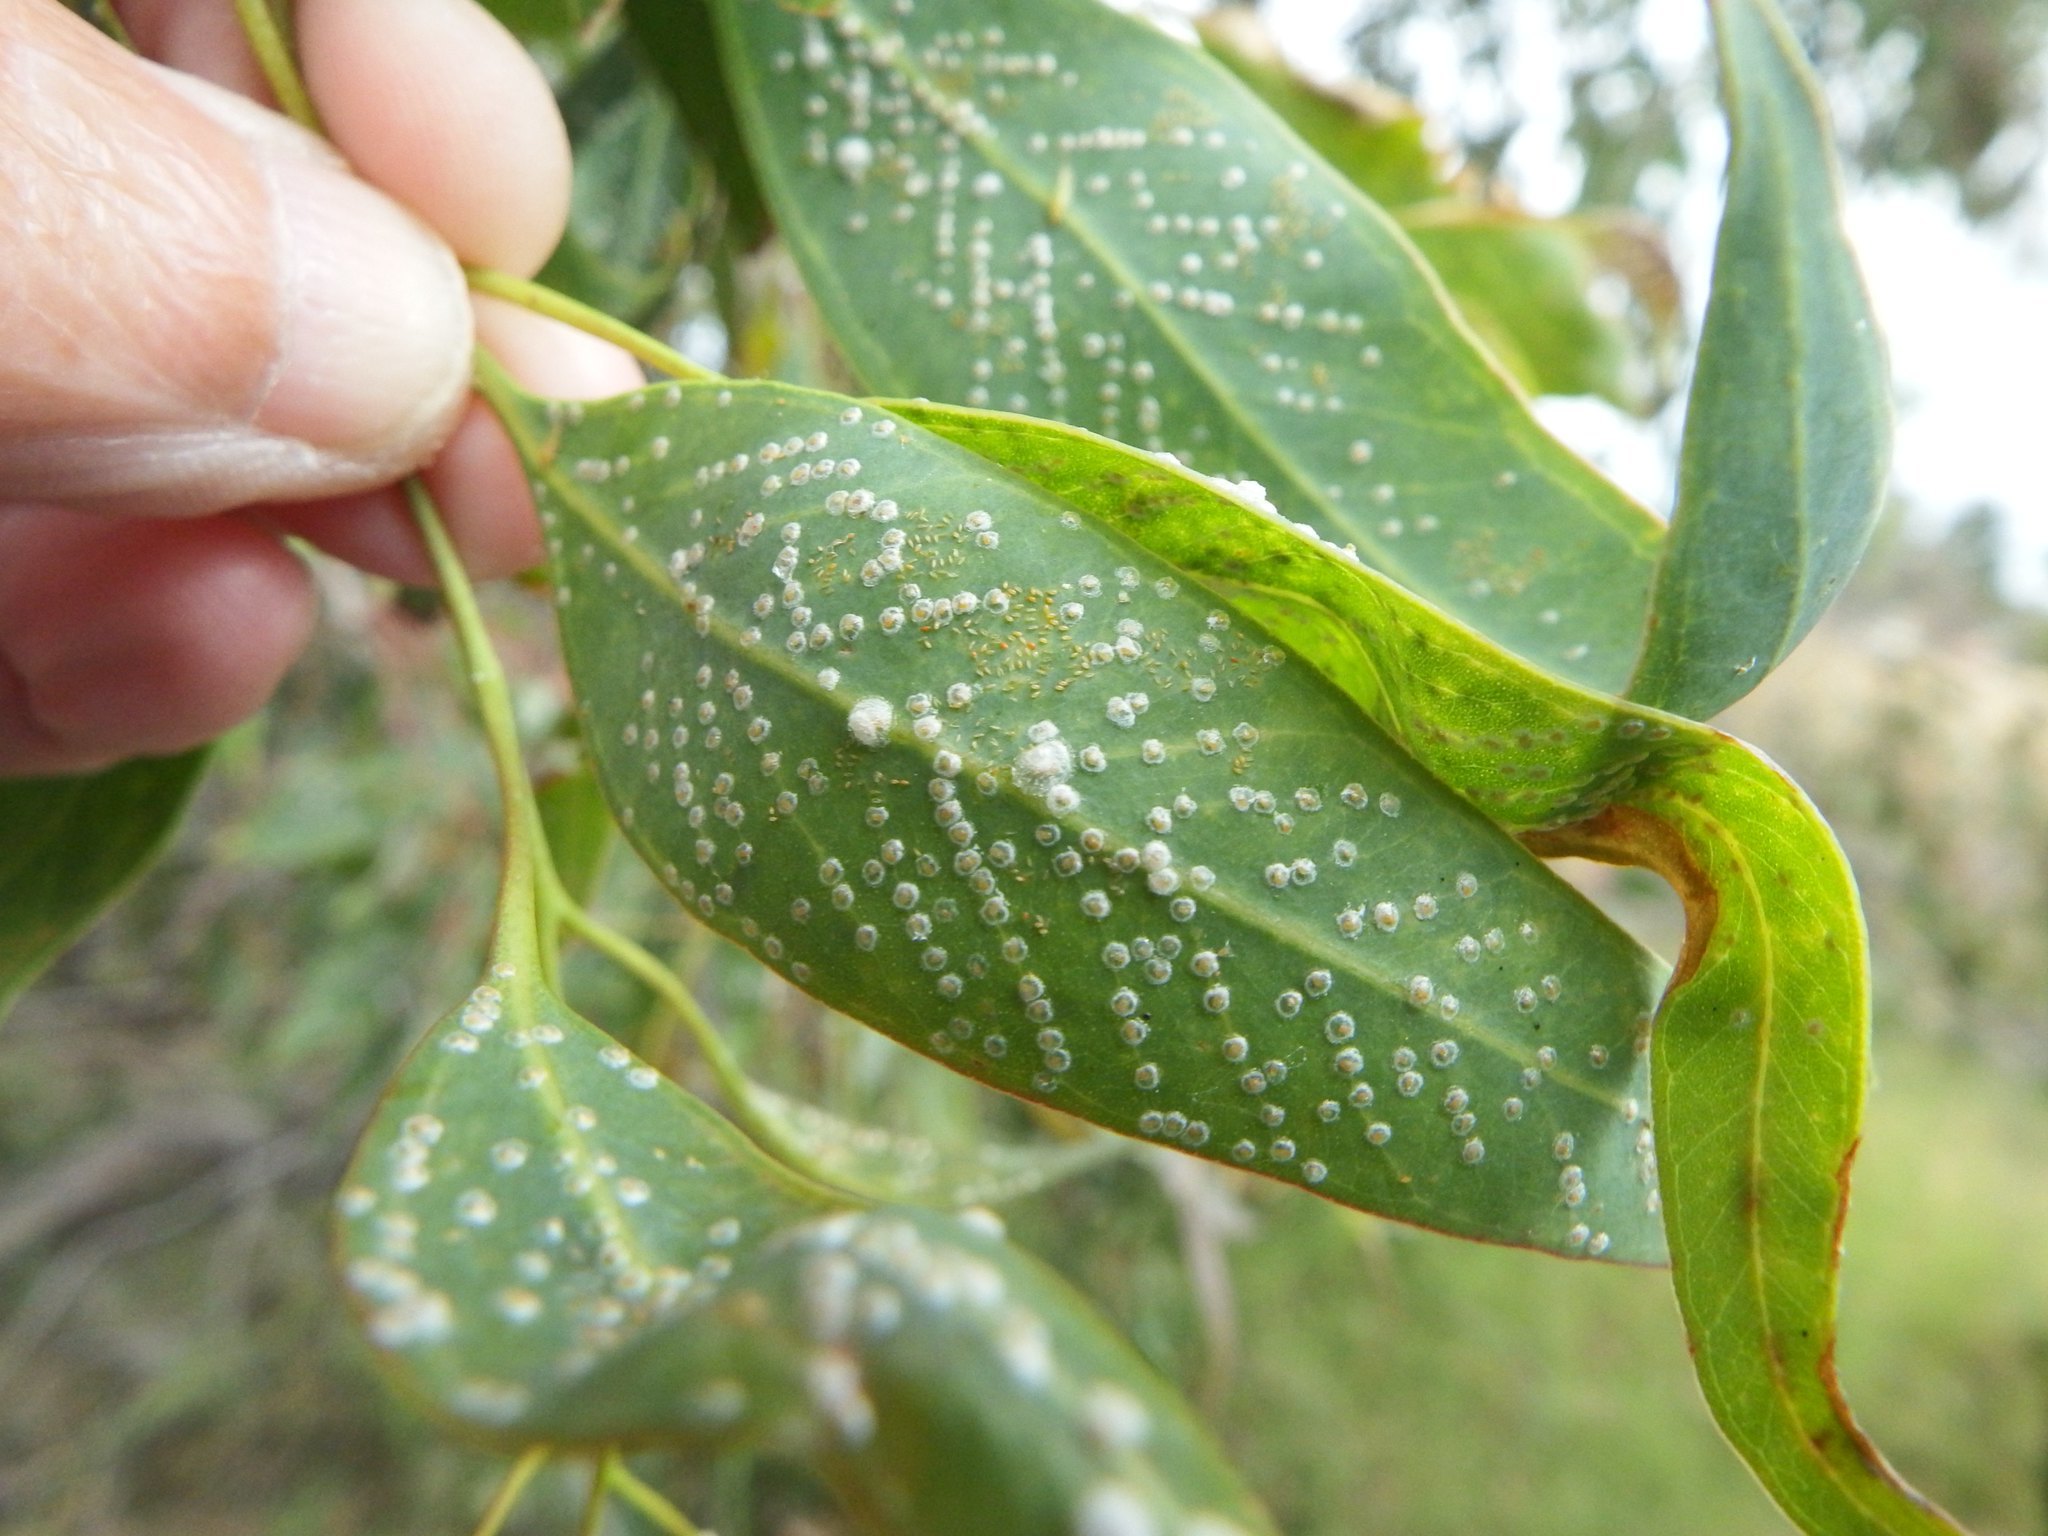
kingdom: Animalia
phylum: Arthropoda
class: Insecta
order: Hemiptera
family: Aphalaridae
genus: Glycaspis
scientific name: Glycaspis brimblecombei
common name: Red gum lerp psyllid
